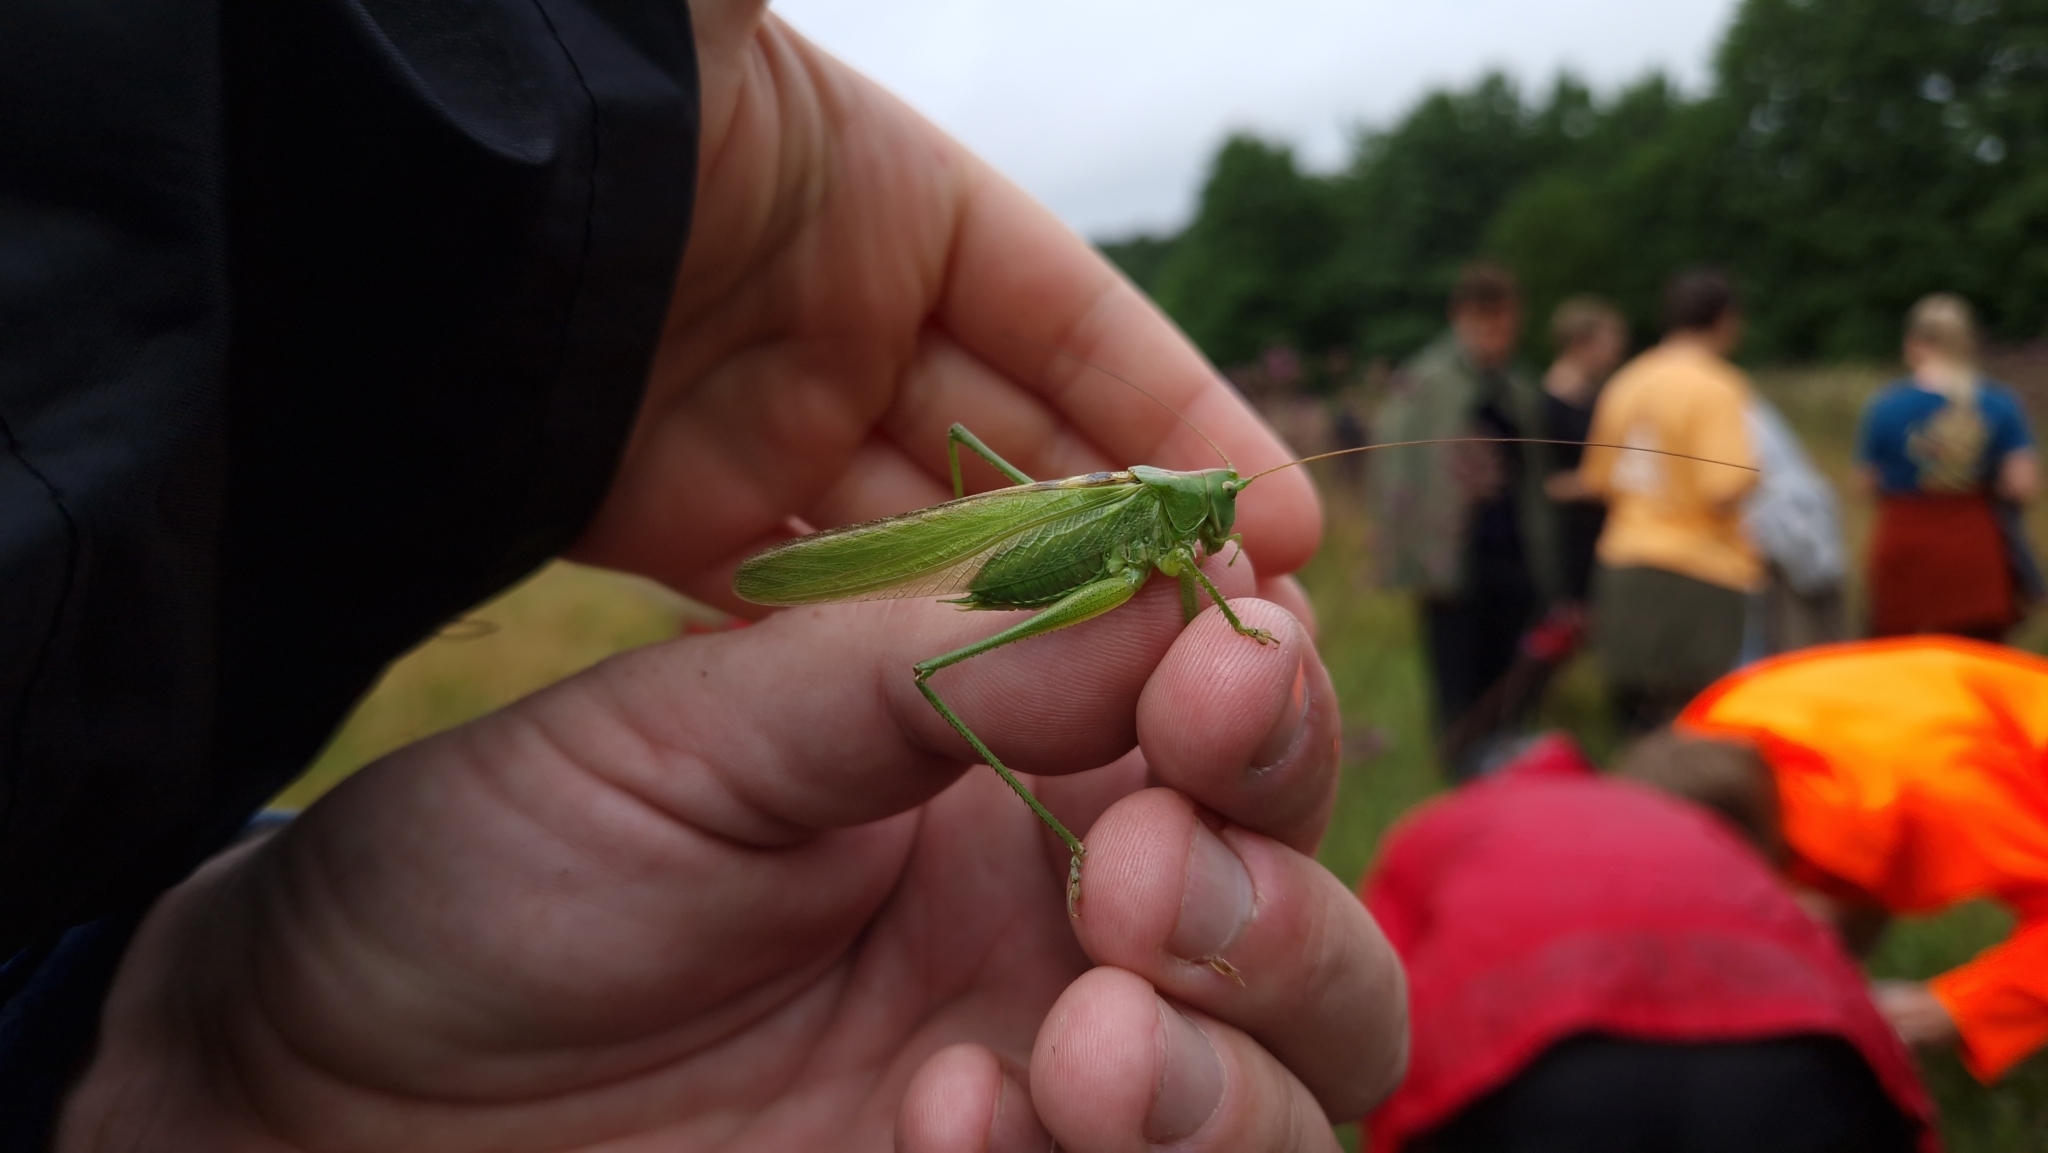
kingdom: Animalia
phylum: Arthropoda
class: Insecta
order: Orthoptera
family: Tettigoniidae
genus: Tettigonia
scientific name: Tettigonia viridissima
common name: Great green bush-cricket
